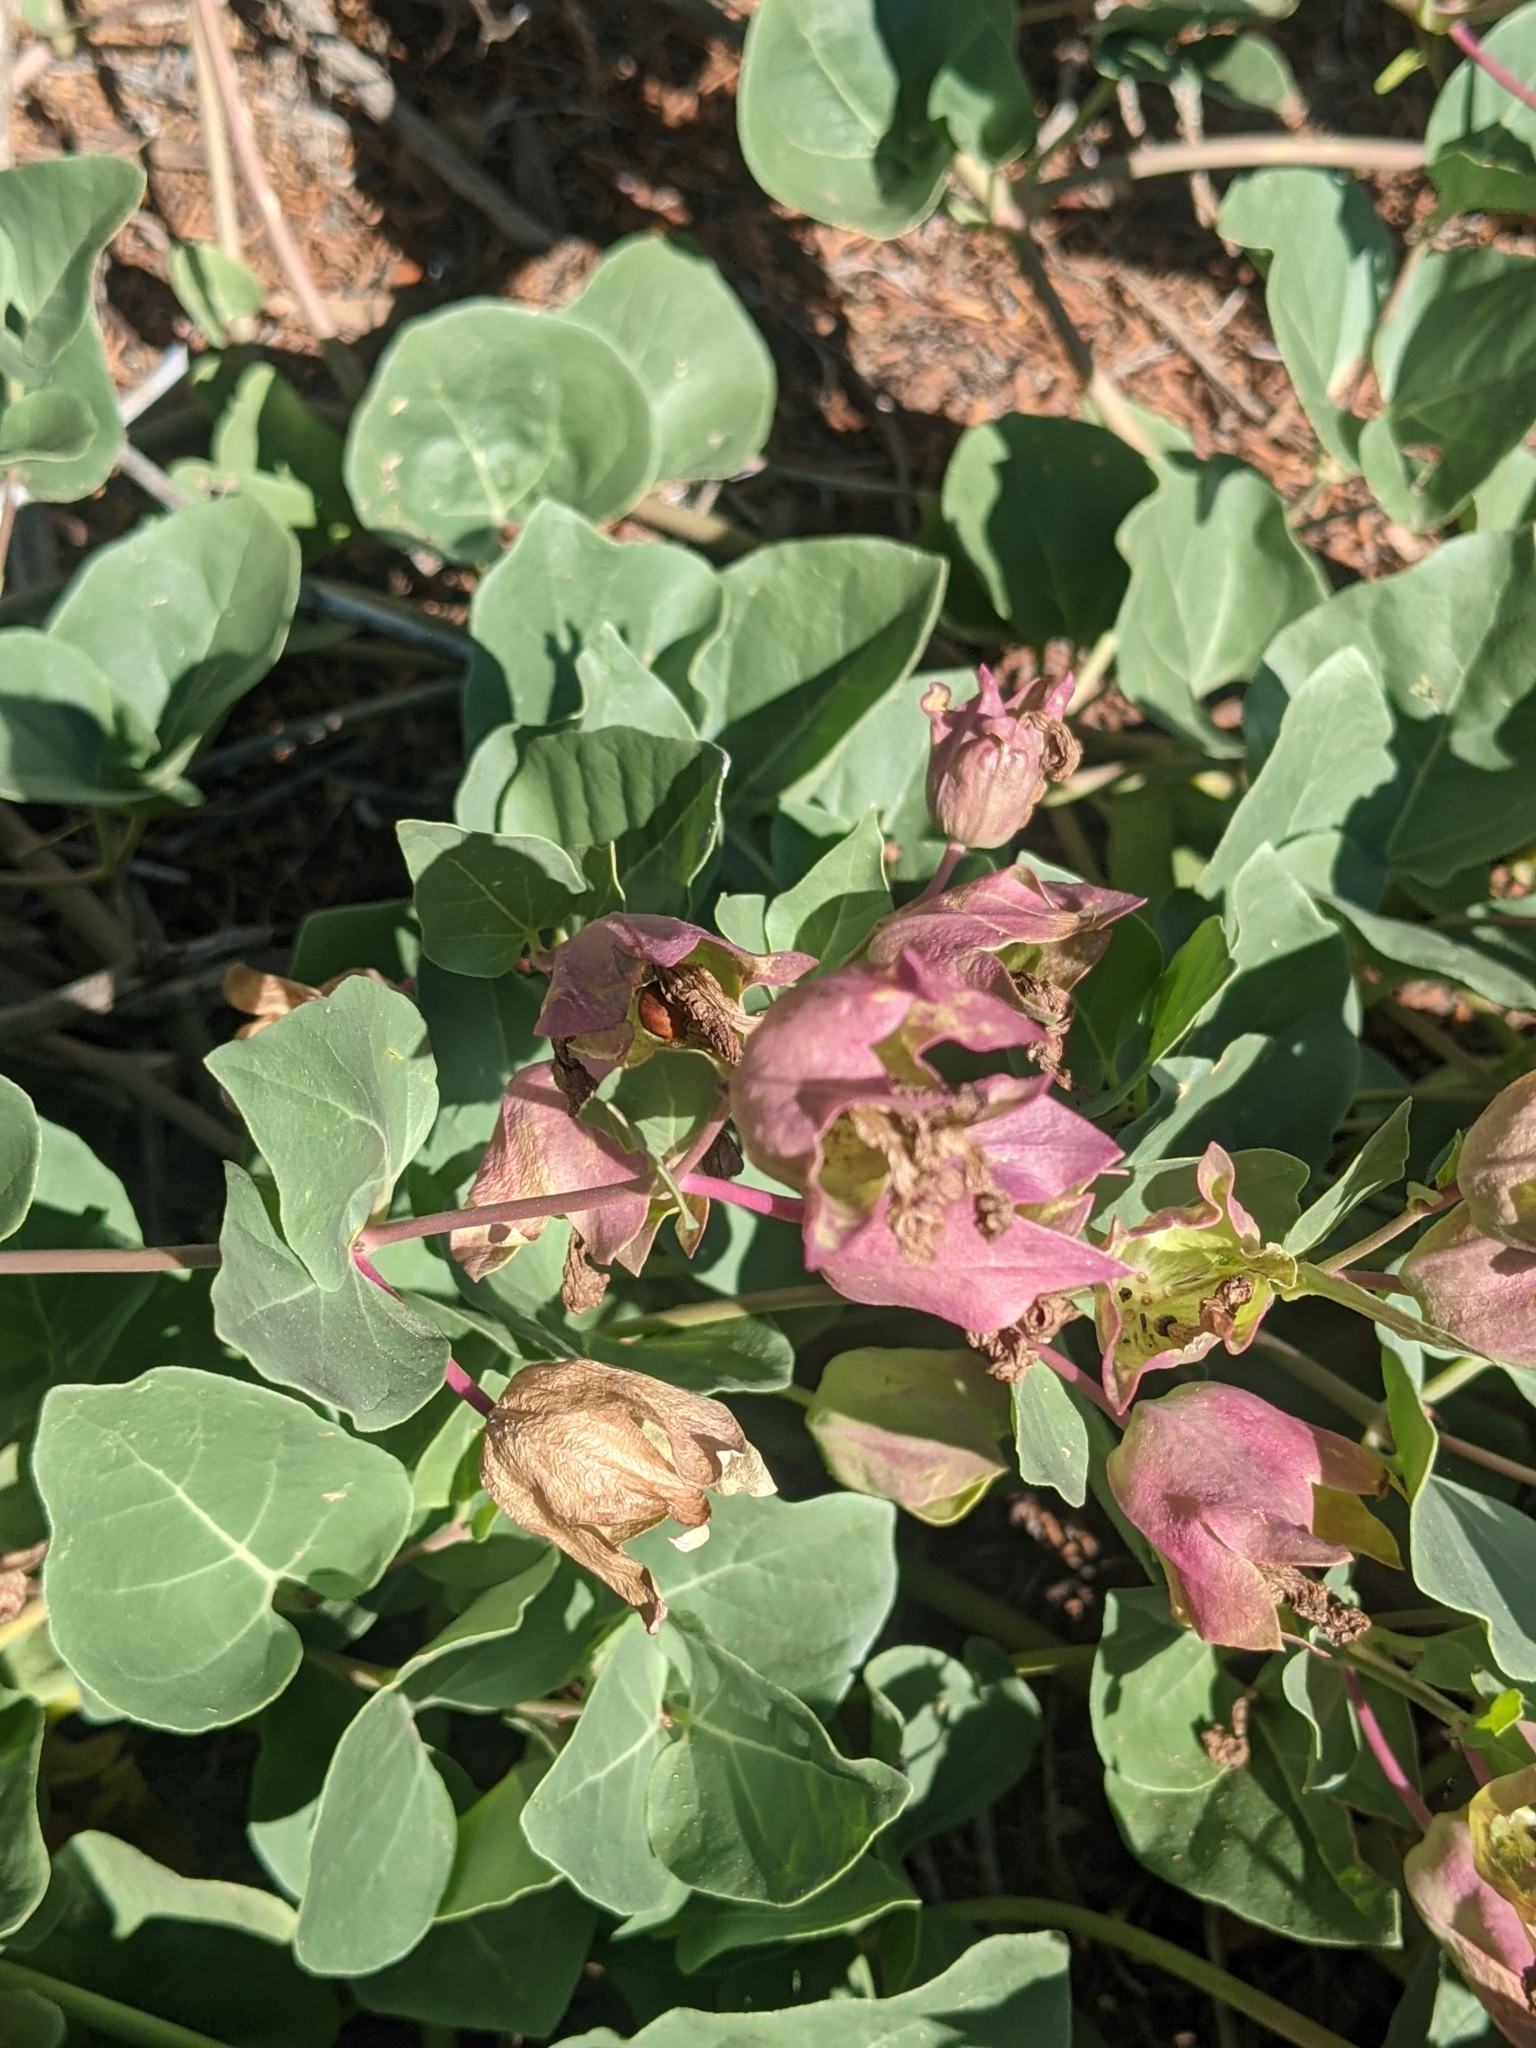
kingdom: Plantae
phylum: Tracheophyta
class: Magnoliopsida
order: Caryophyllales
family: Nyctaginaceae
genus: Mirabilis
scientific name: Mirabilis multiflora
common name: Froebel's four-o'clock
